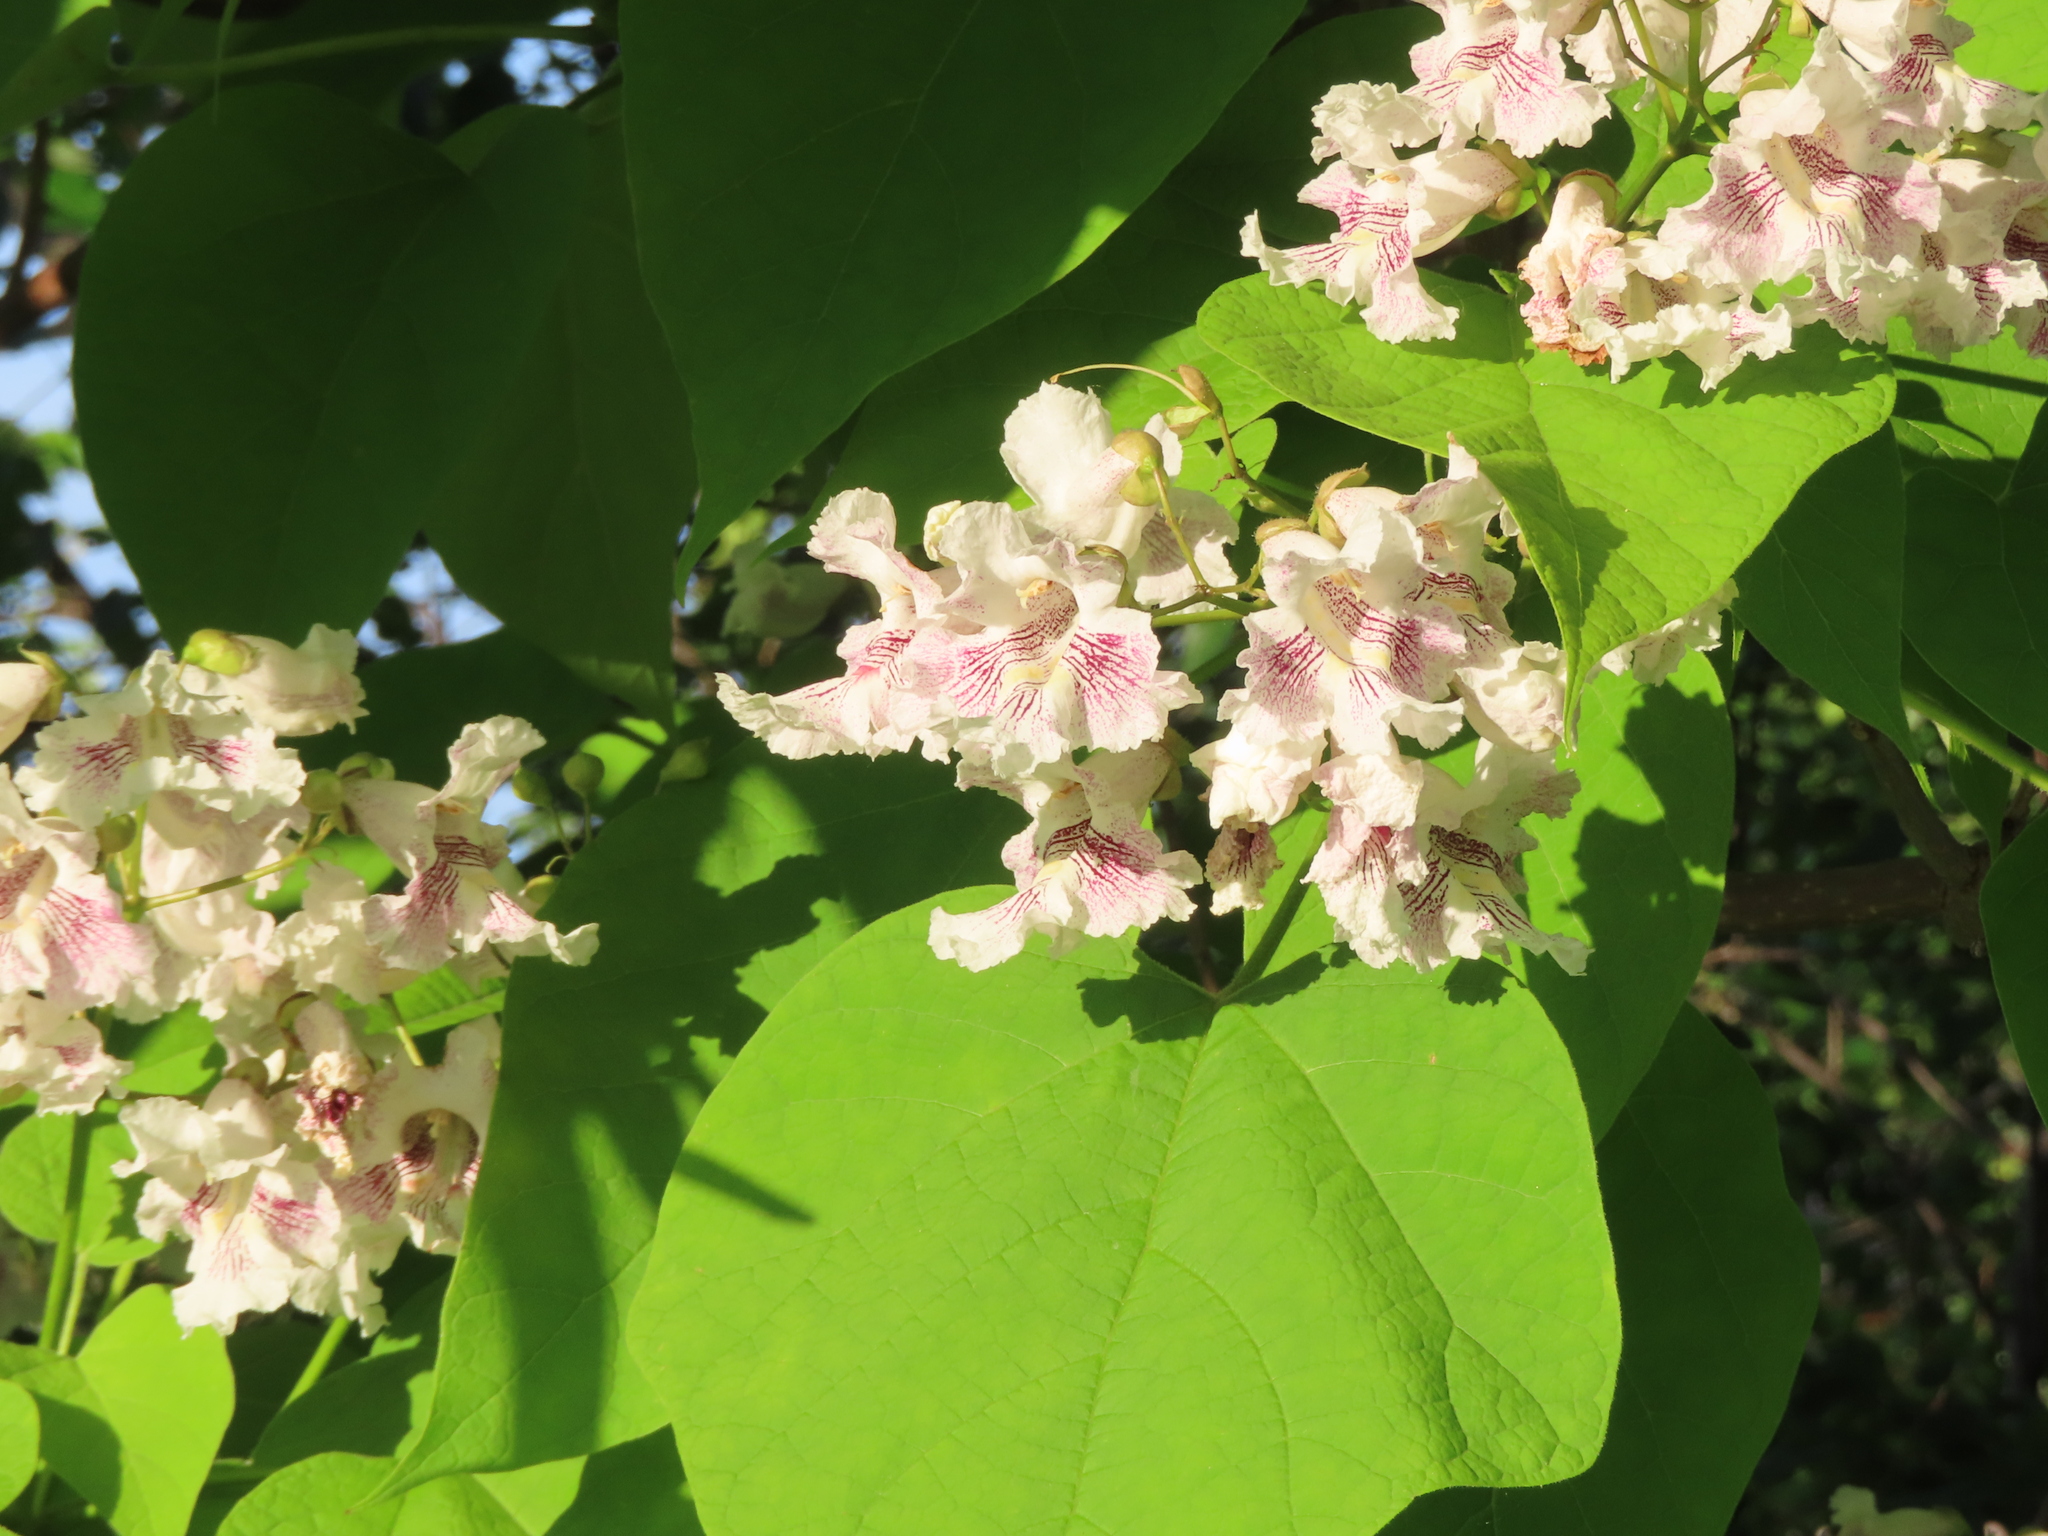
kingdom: Plantae
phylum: Tracheophyta
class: Magnoliopsida
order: Lamiales
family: Bignoniaceae
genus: Catalpa
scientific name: Catalpa speciosa
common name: Northern catalpa
